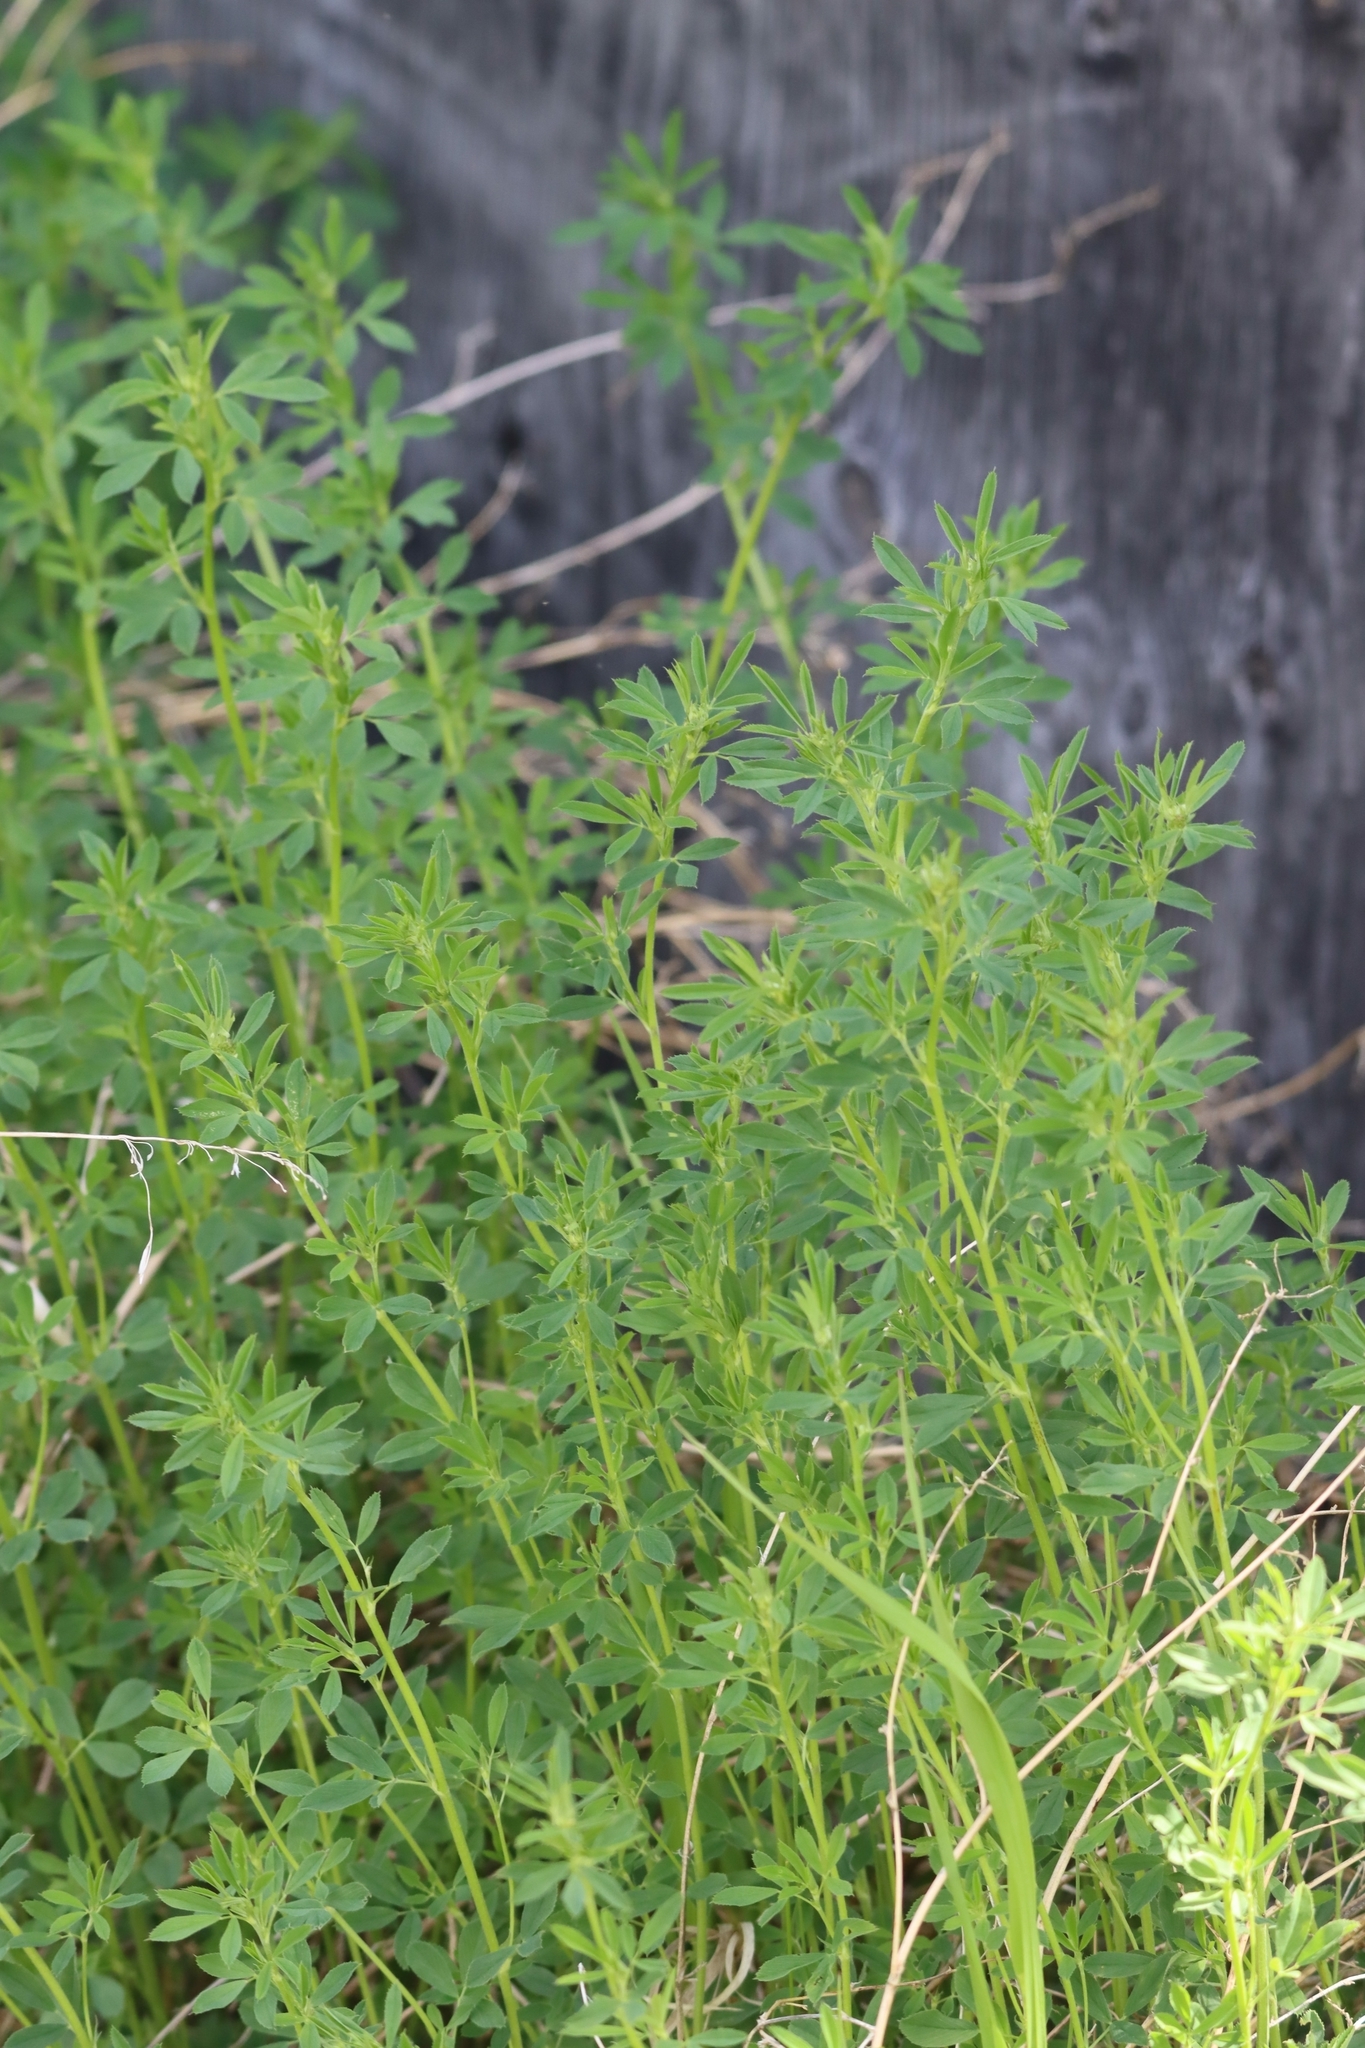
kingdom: Plantae
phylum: Tracheophyta
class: Magnoliopsida
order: Fabales
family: Fabaceae
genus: Melilotus
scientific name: Melilotus albus
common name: White melilot
